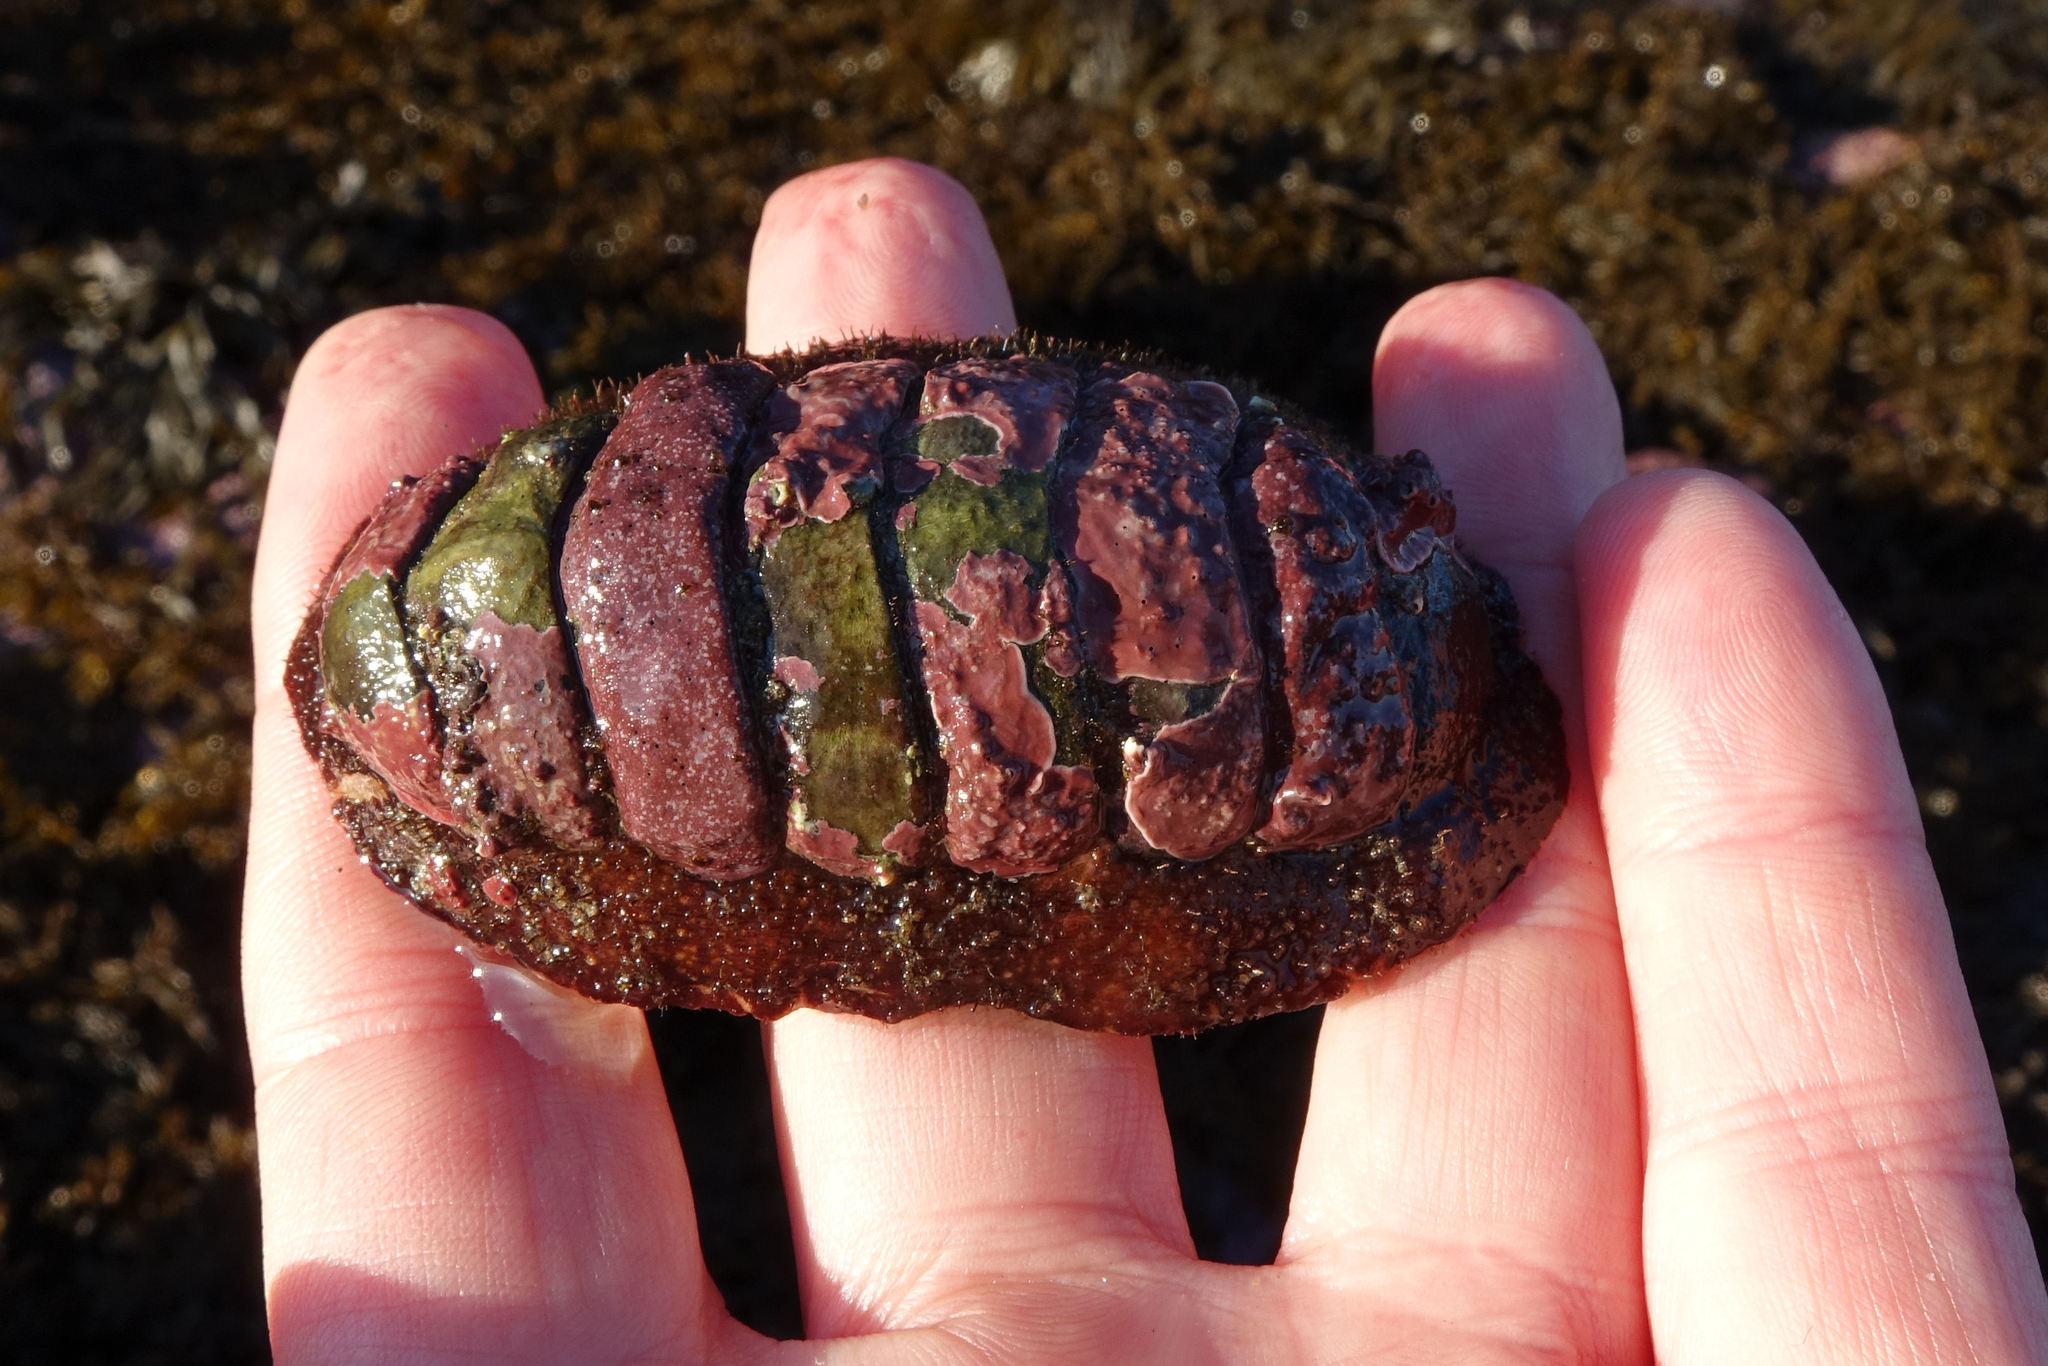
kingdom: Animalia
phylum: Mollusca
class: Polyplacophora
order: Callochitonida
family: Callochitonidae
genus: Eudoxochiton
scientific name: Eudoxochiton nobilis
